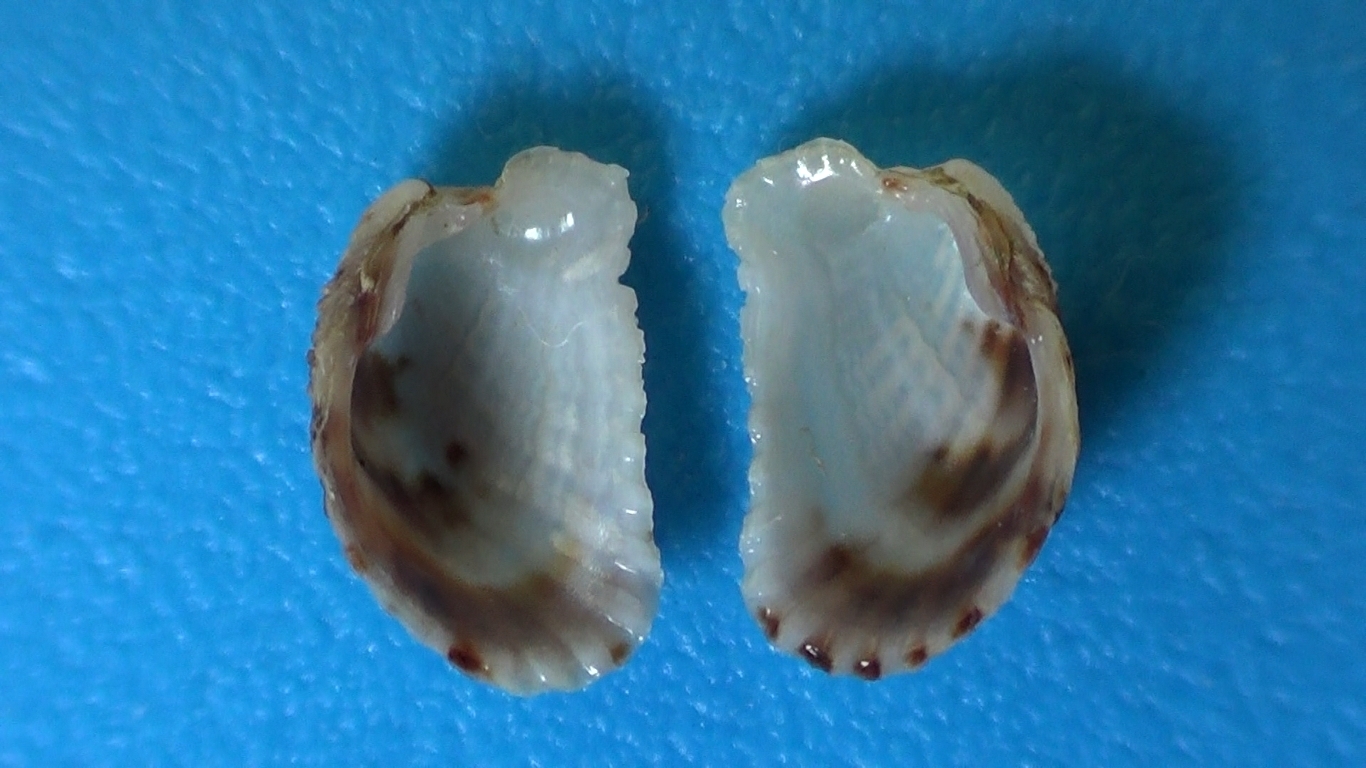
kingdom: Animalia
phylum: Mollusca
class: Bivalvia
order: Carditida
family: Carditidae
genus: Cardita
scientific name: Cardita calyculata
